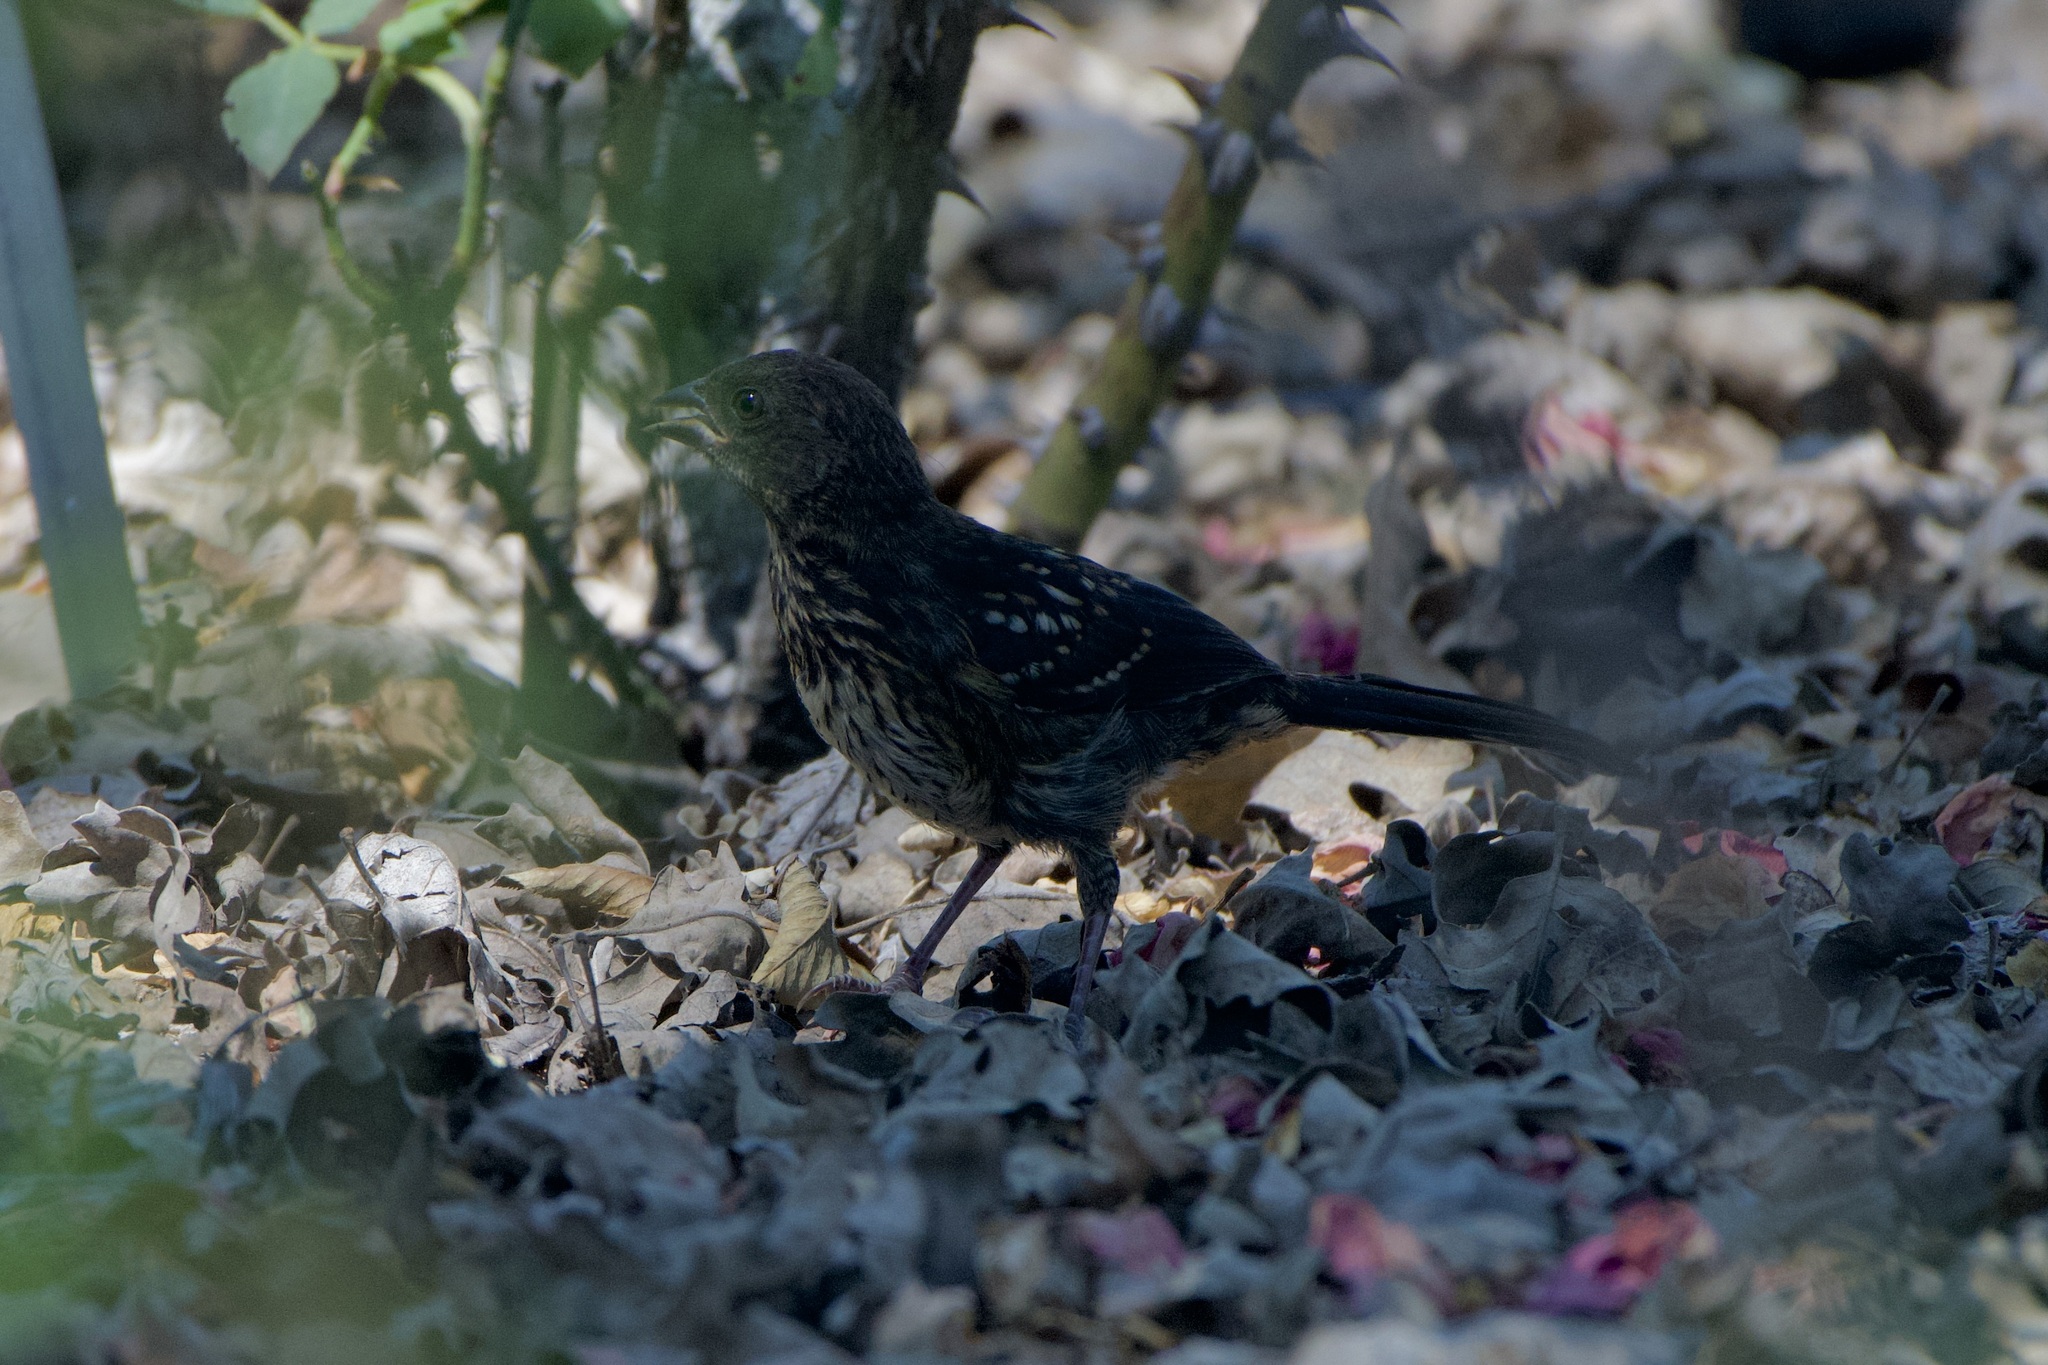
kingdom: Animalia
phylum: Chordata
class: Aves
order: Passeriformes
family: Passerellidae
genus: Pipilo
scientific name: Pipilo maculatus
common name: Spotted towhee
